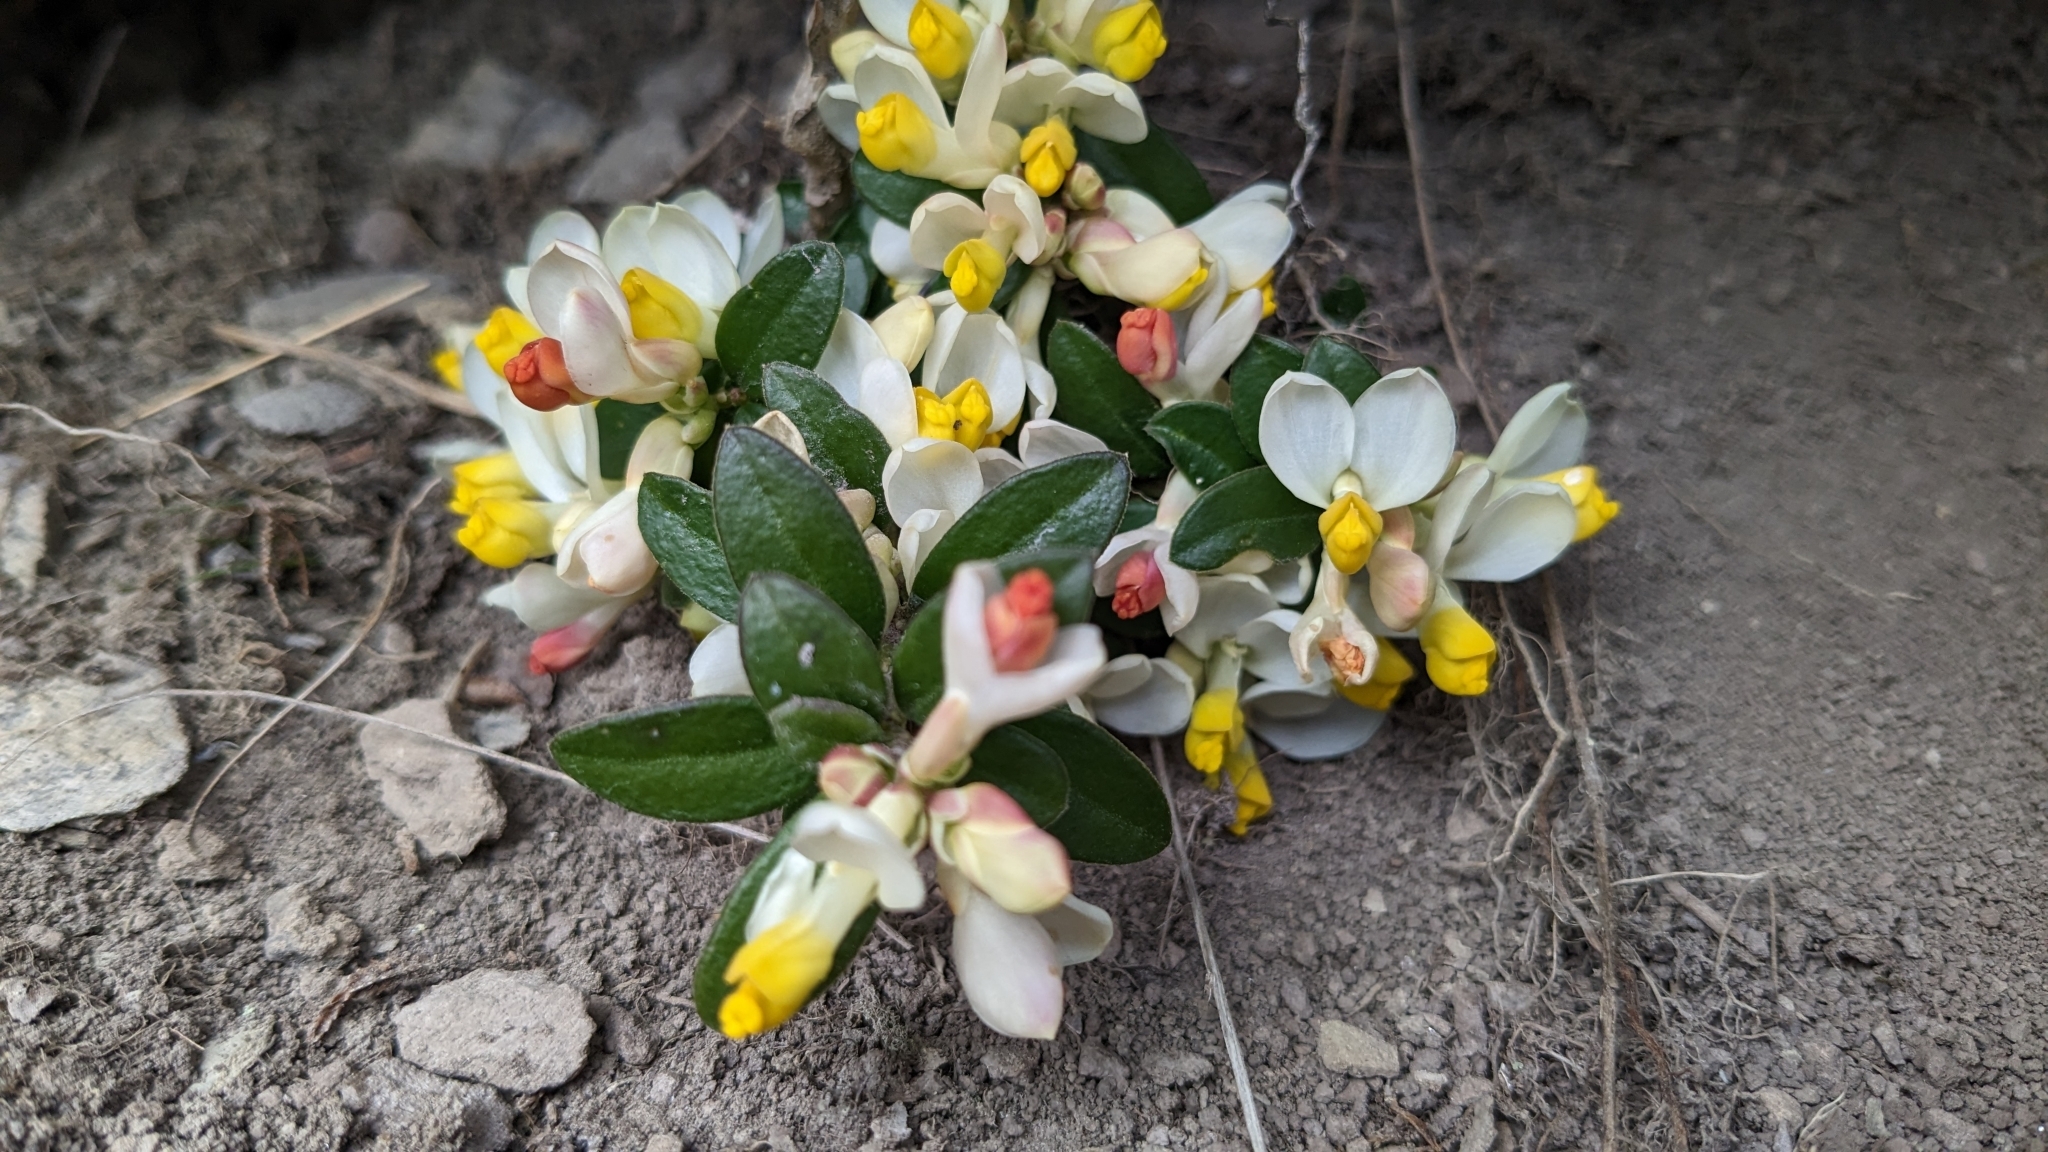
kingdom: Plantae
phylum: Tracheophyta
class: Magnoliopsida
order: Fabales
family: Polygalaceae
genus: Polygaloides
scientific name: Polygaloides chamaebuxus
